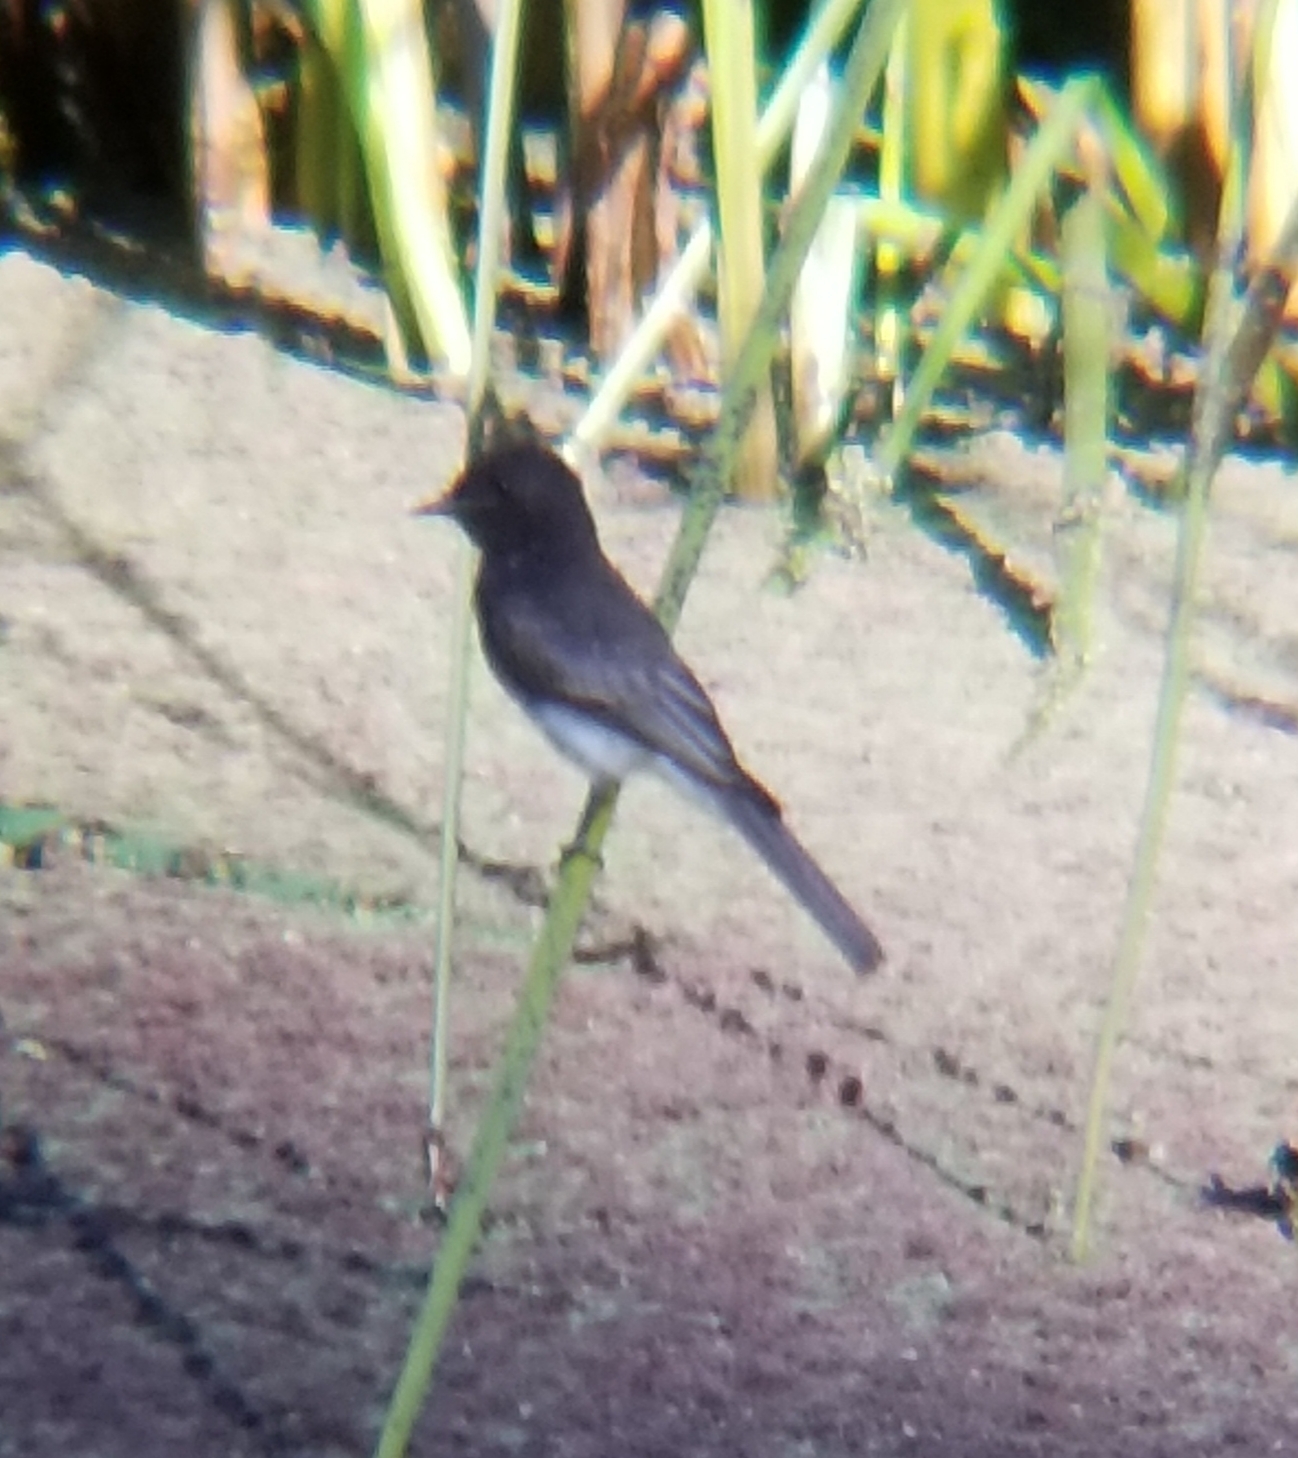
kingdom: Animalia
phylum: Chordata
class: Aves
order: Passeriformes
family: Tyrannidae
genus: Sayornis
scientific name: Sayornis nigricans
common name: Black phoebe
